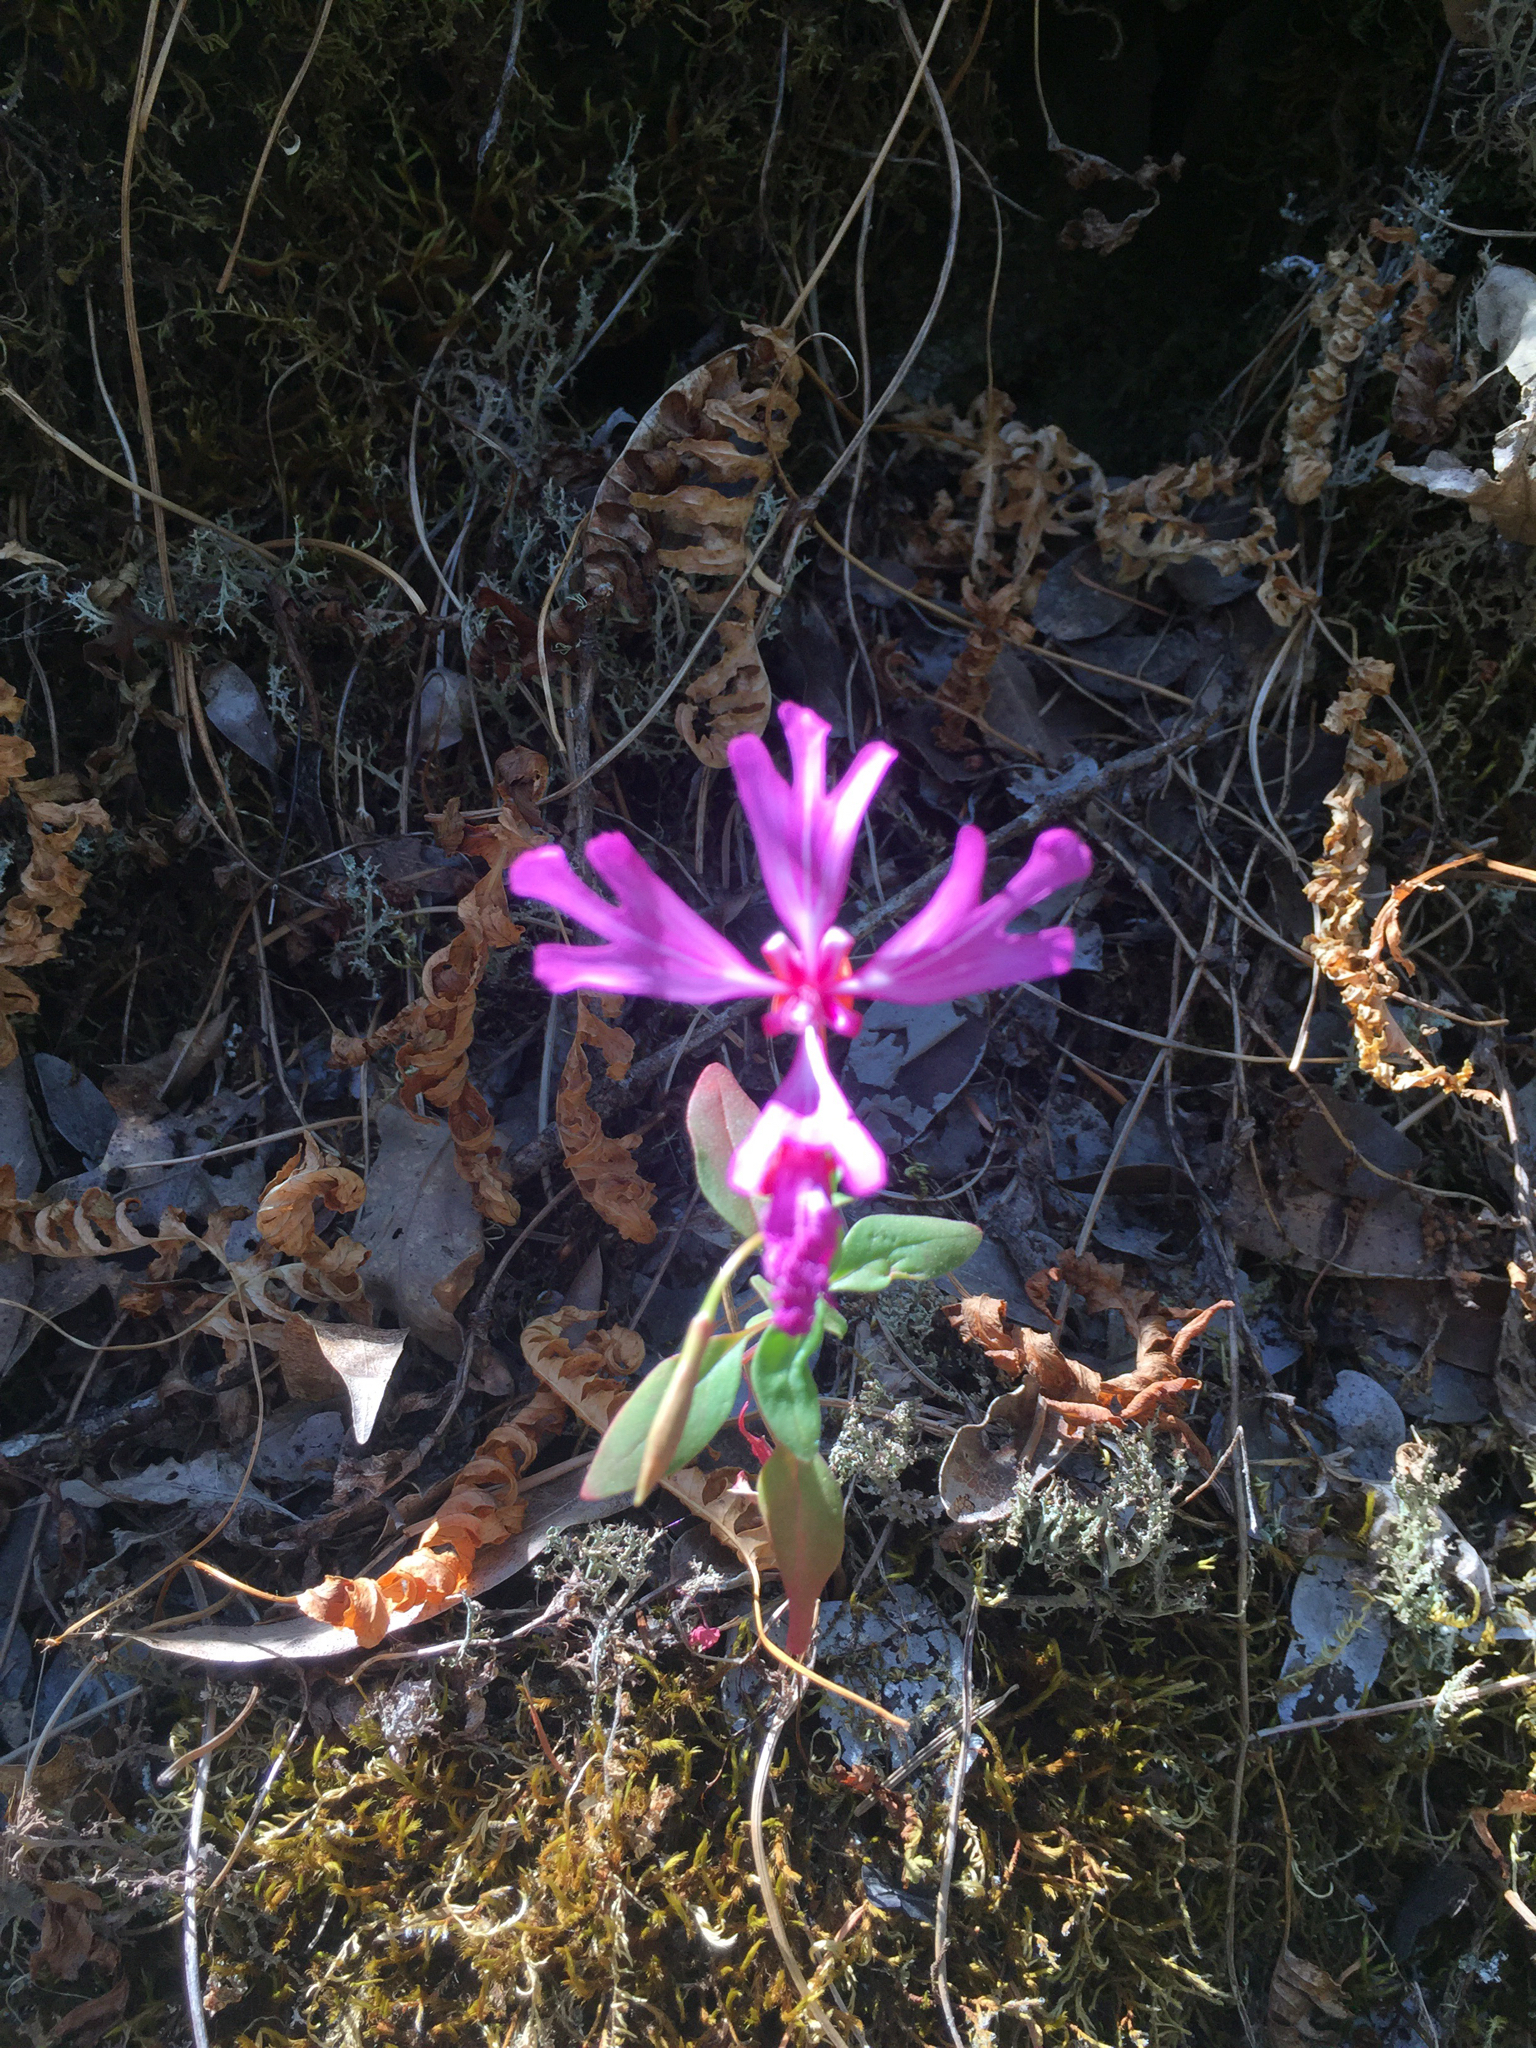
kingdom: Plantae
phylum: Tracheophyta
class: Magnoliopsida
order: Myrtales
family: Onagraceae
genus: Clarkia
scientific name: Clarkia concinna
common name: Red-ribbons
